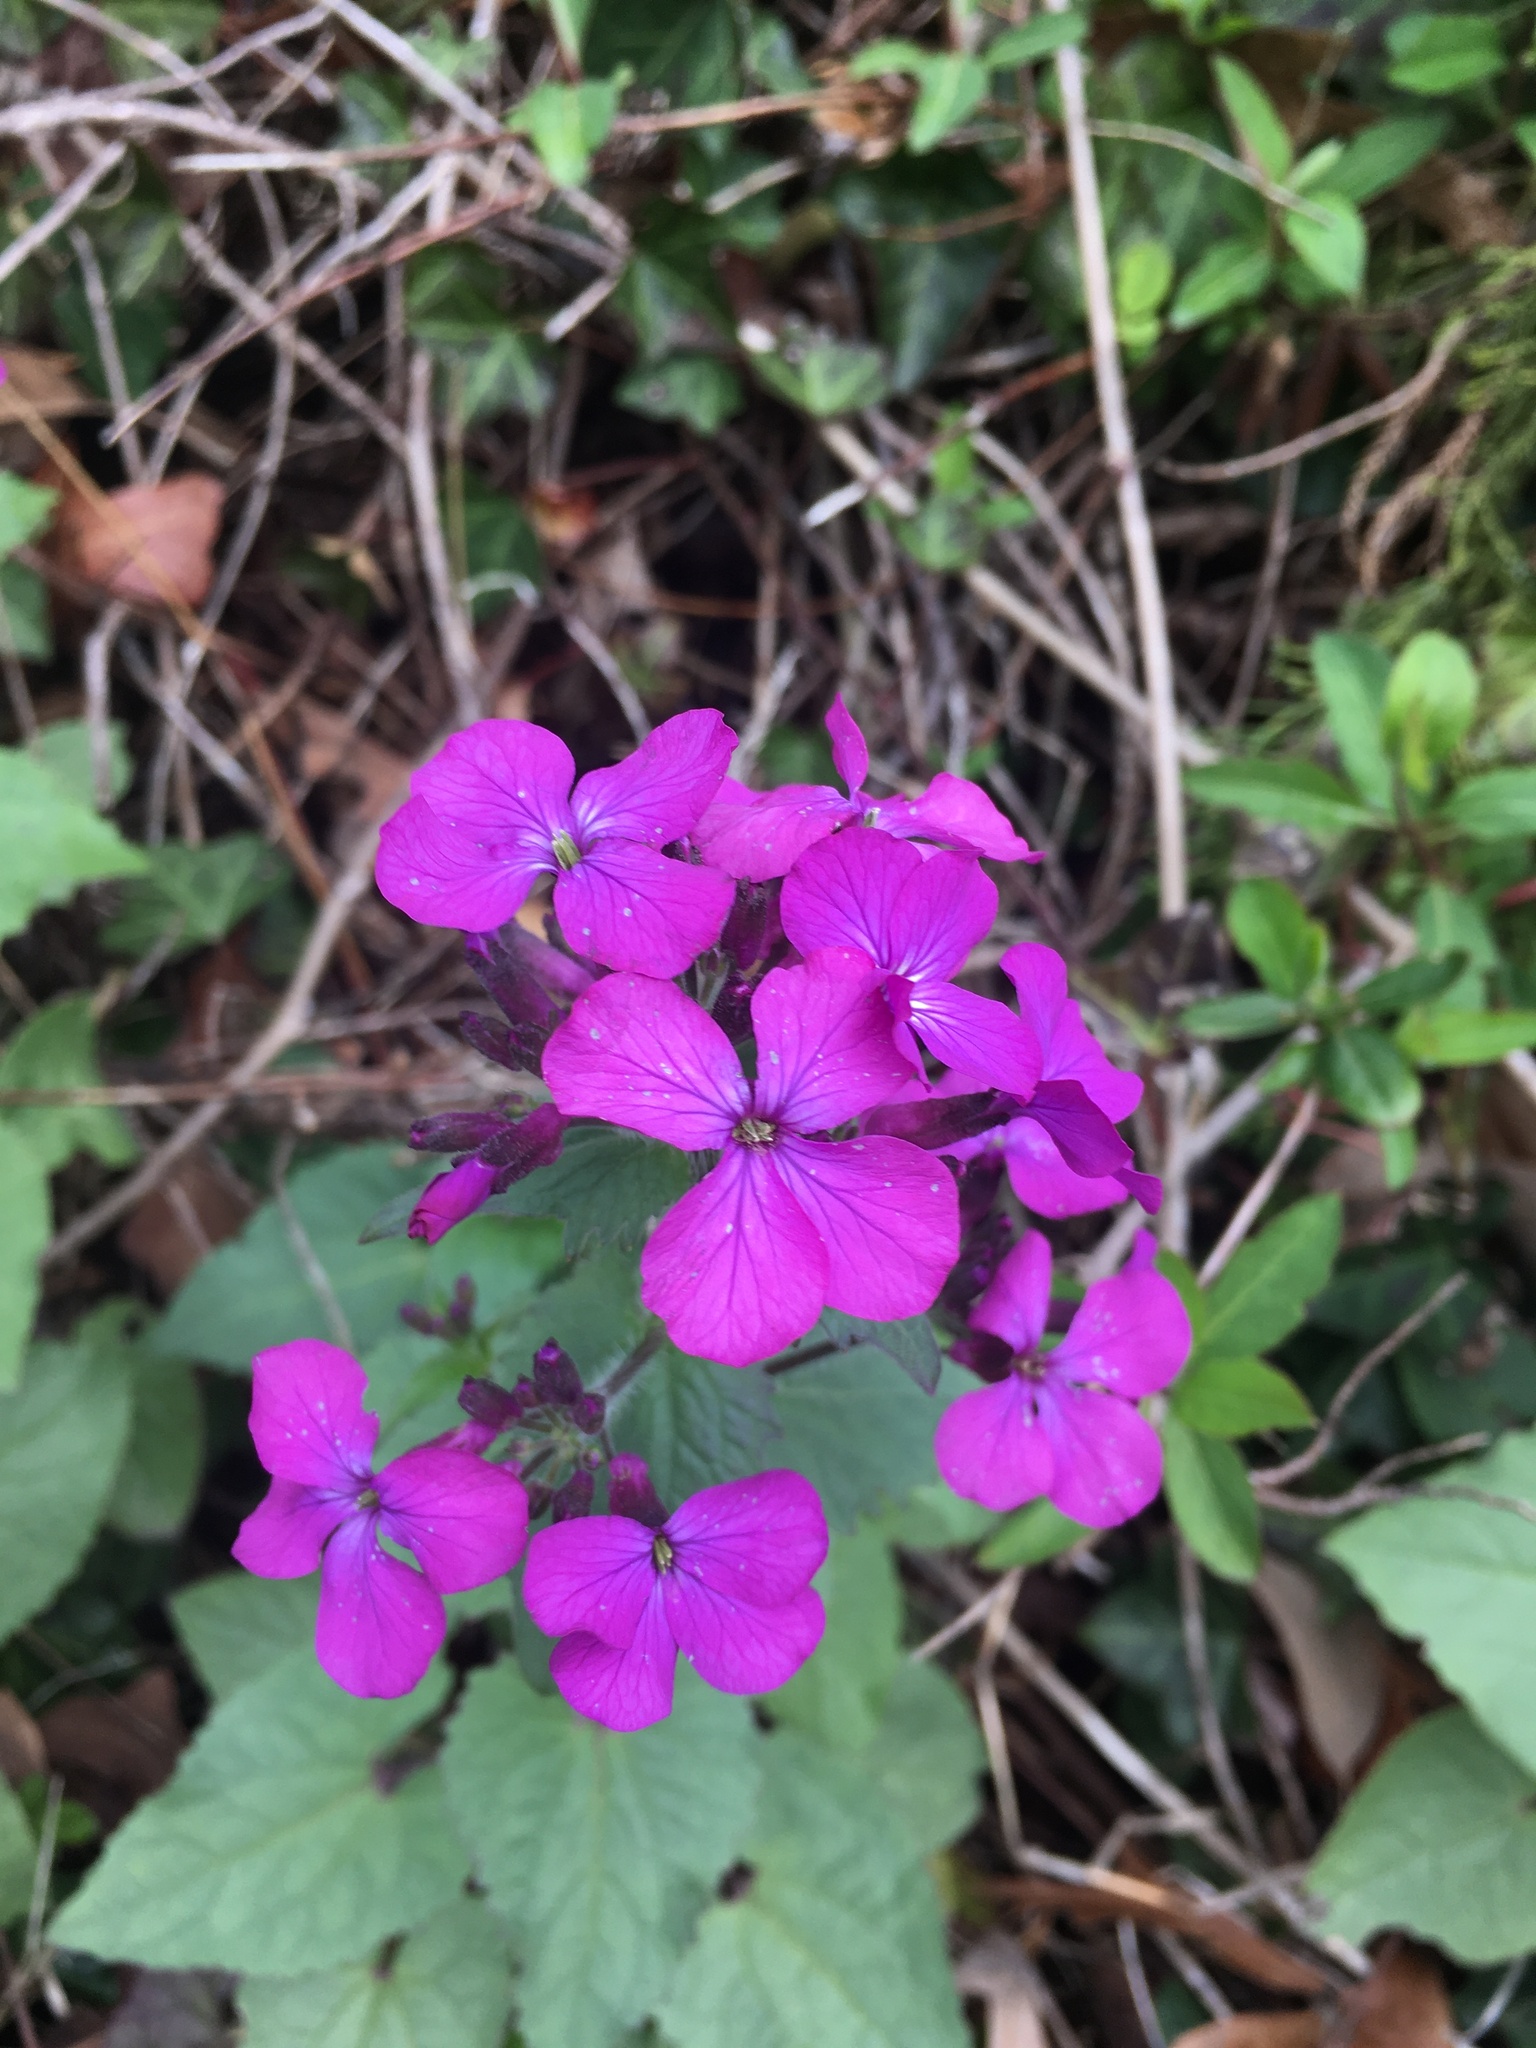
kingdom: Plantae
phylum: Tracheophyta
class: Magnoliopsida
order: Brassicales
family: Brassicaceae
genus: Lunaria
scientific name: Lunaria annua
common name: Honesty
